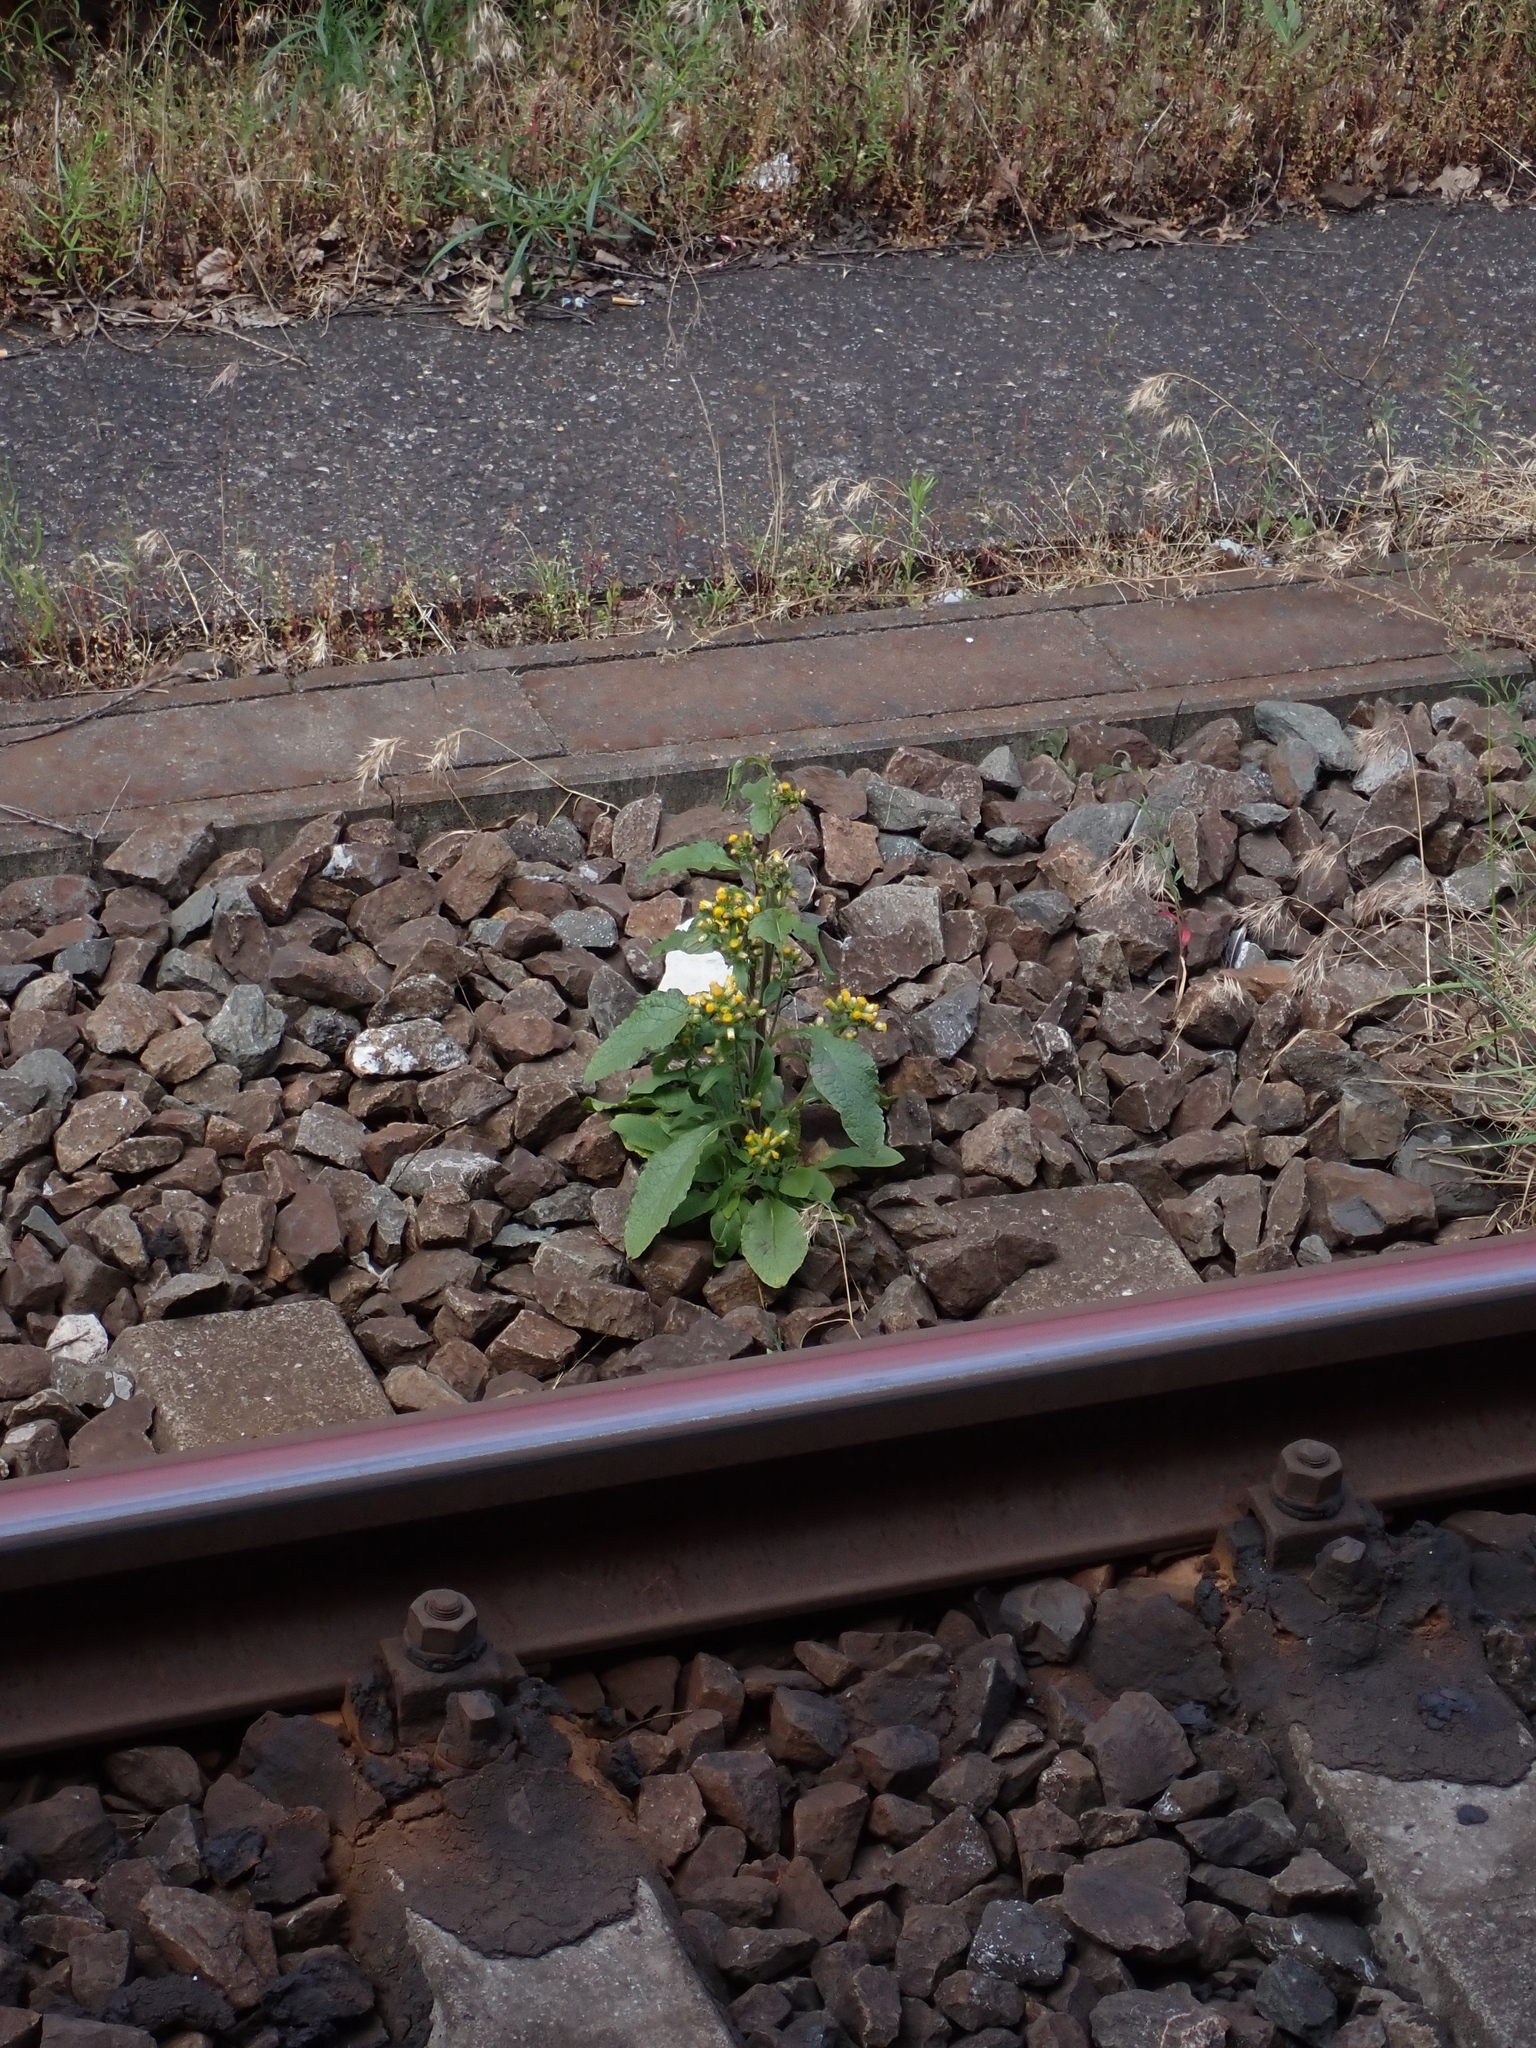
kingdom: Plantae
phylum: Tracheophyta
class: Magnoliopsida
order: Asterales
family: Asteraceae
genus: Pentanema
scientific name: Pentanema squarrosum
